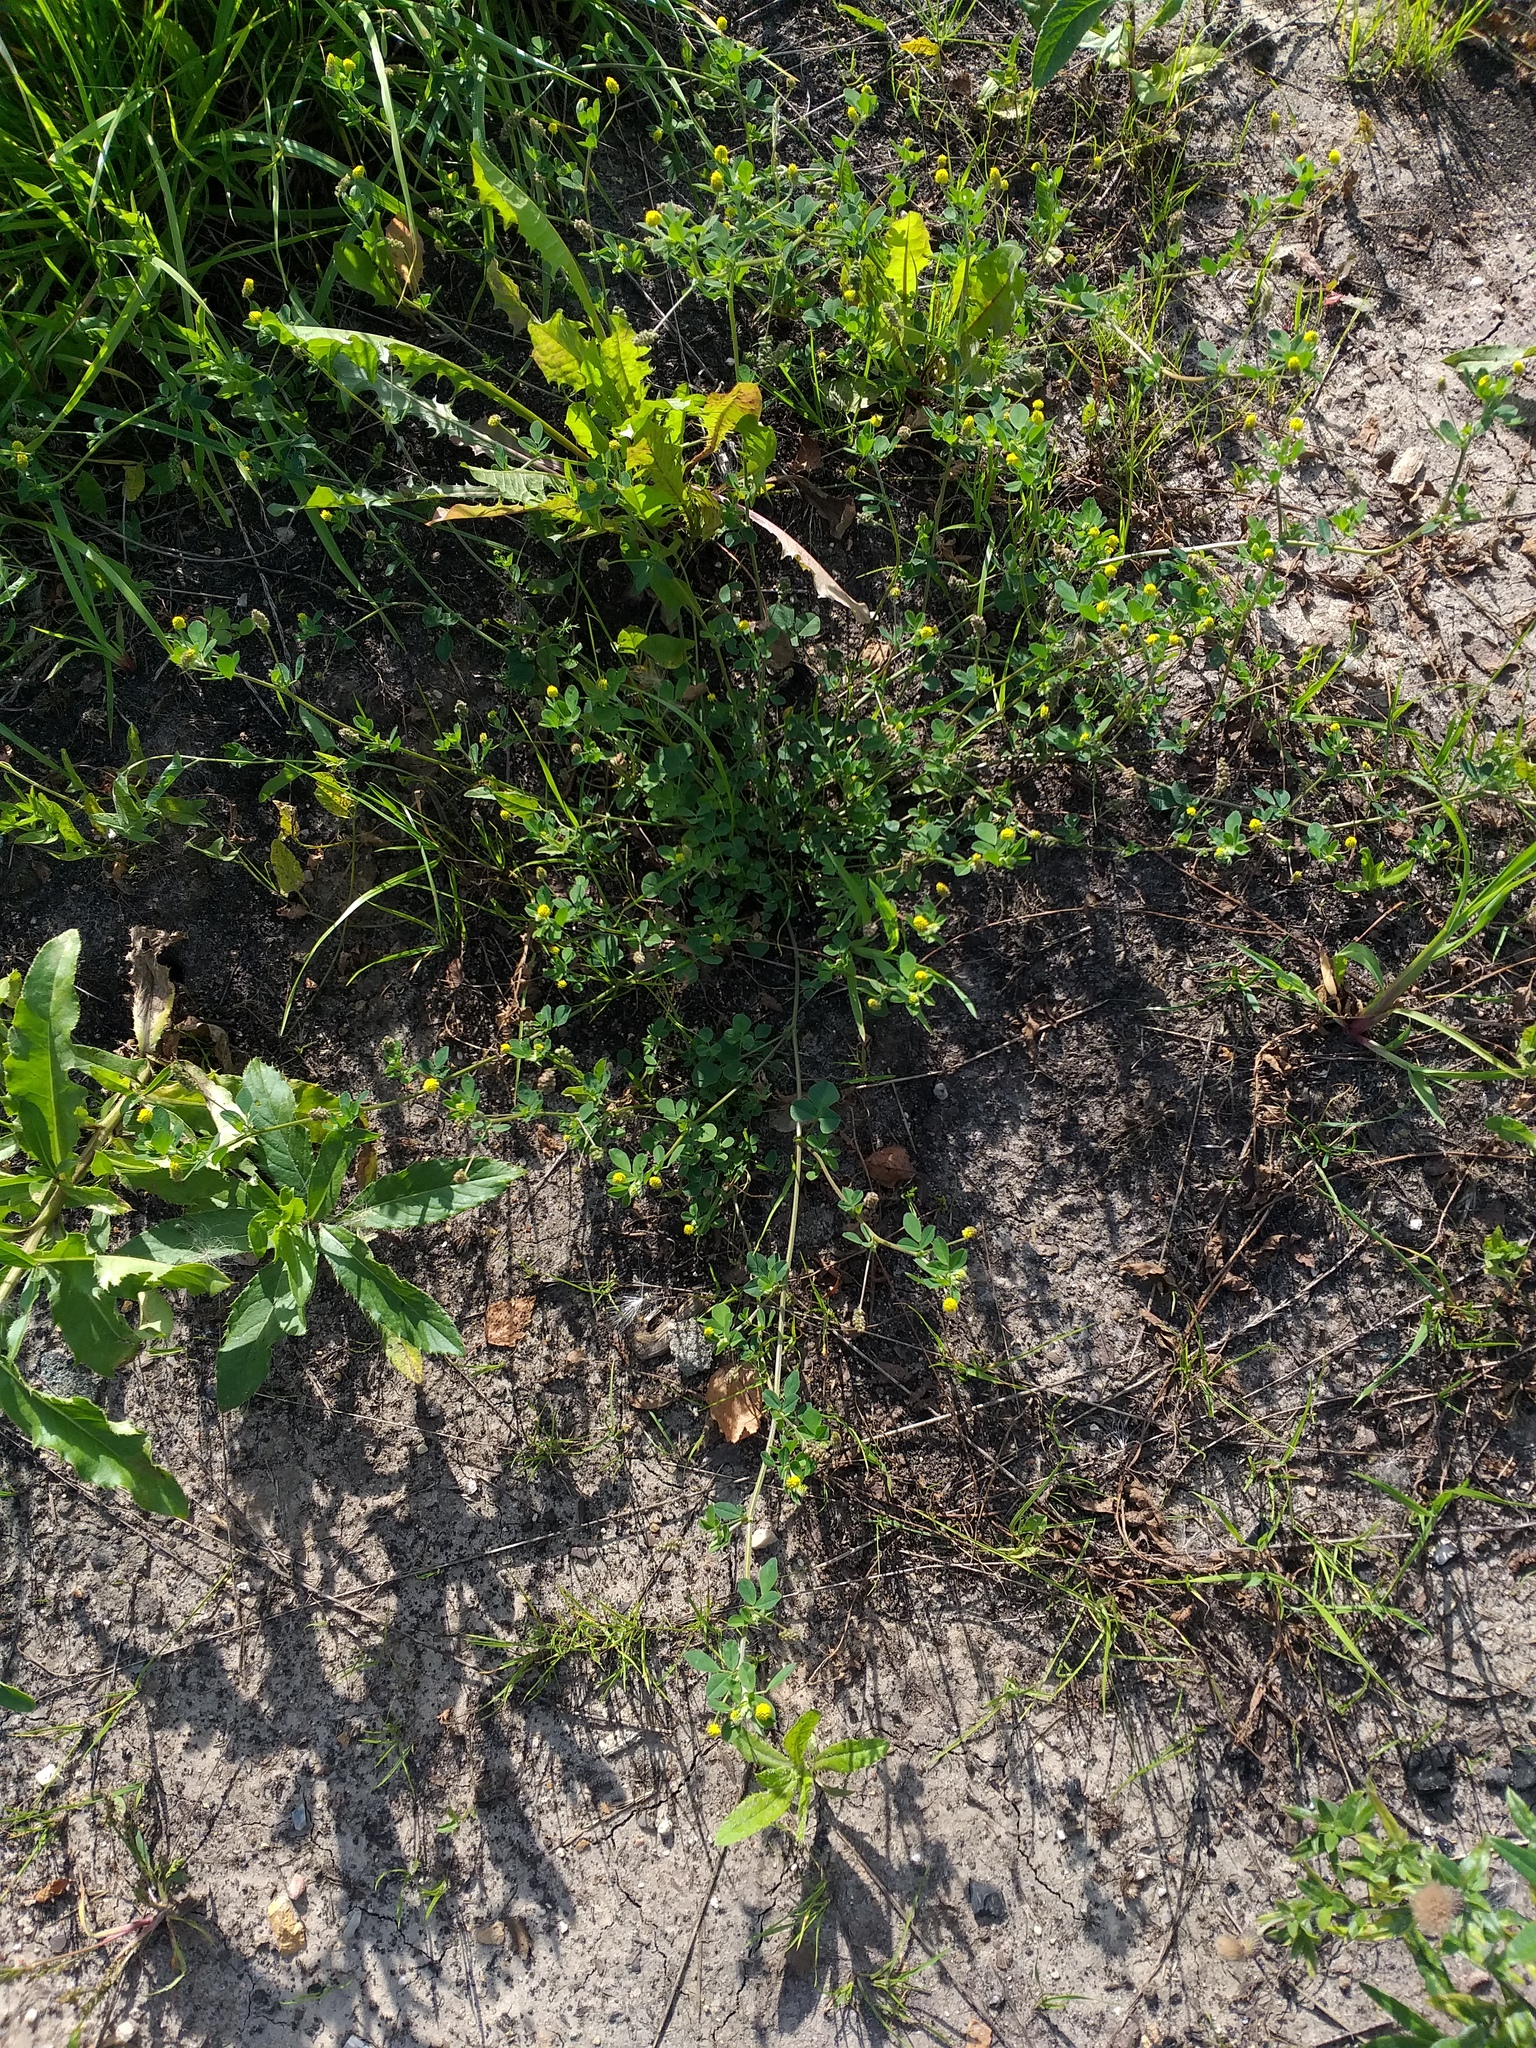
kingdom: Plantae
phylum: Tracheophyta
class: Magnoliopsida
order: Fabales
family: Fabaceae
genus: Medicago
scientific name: Medicago lupulina
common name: Black medick
